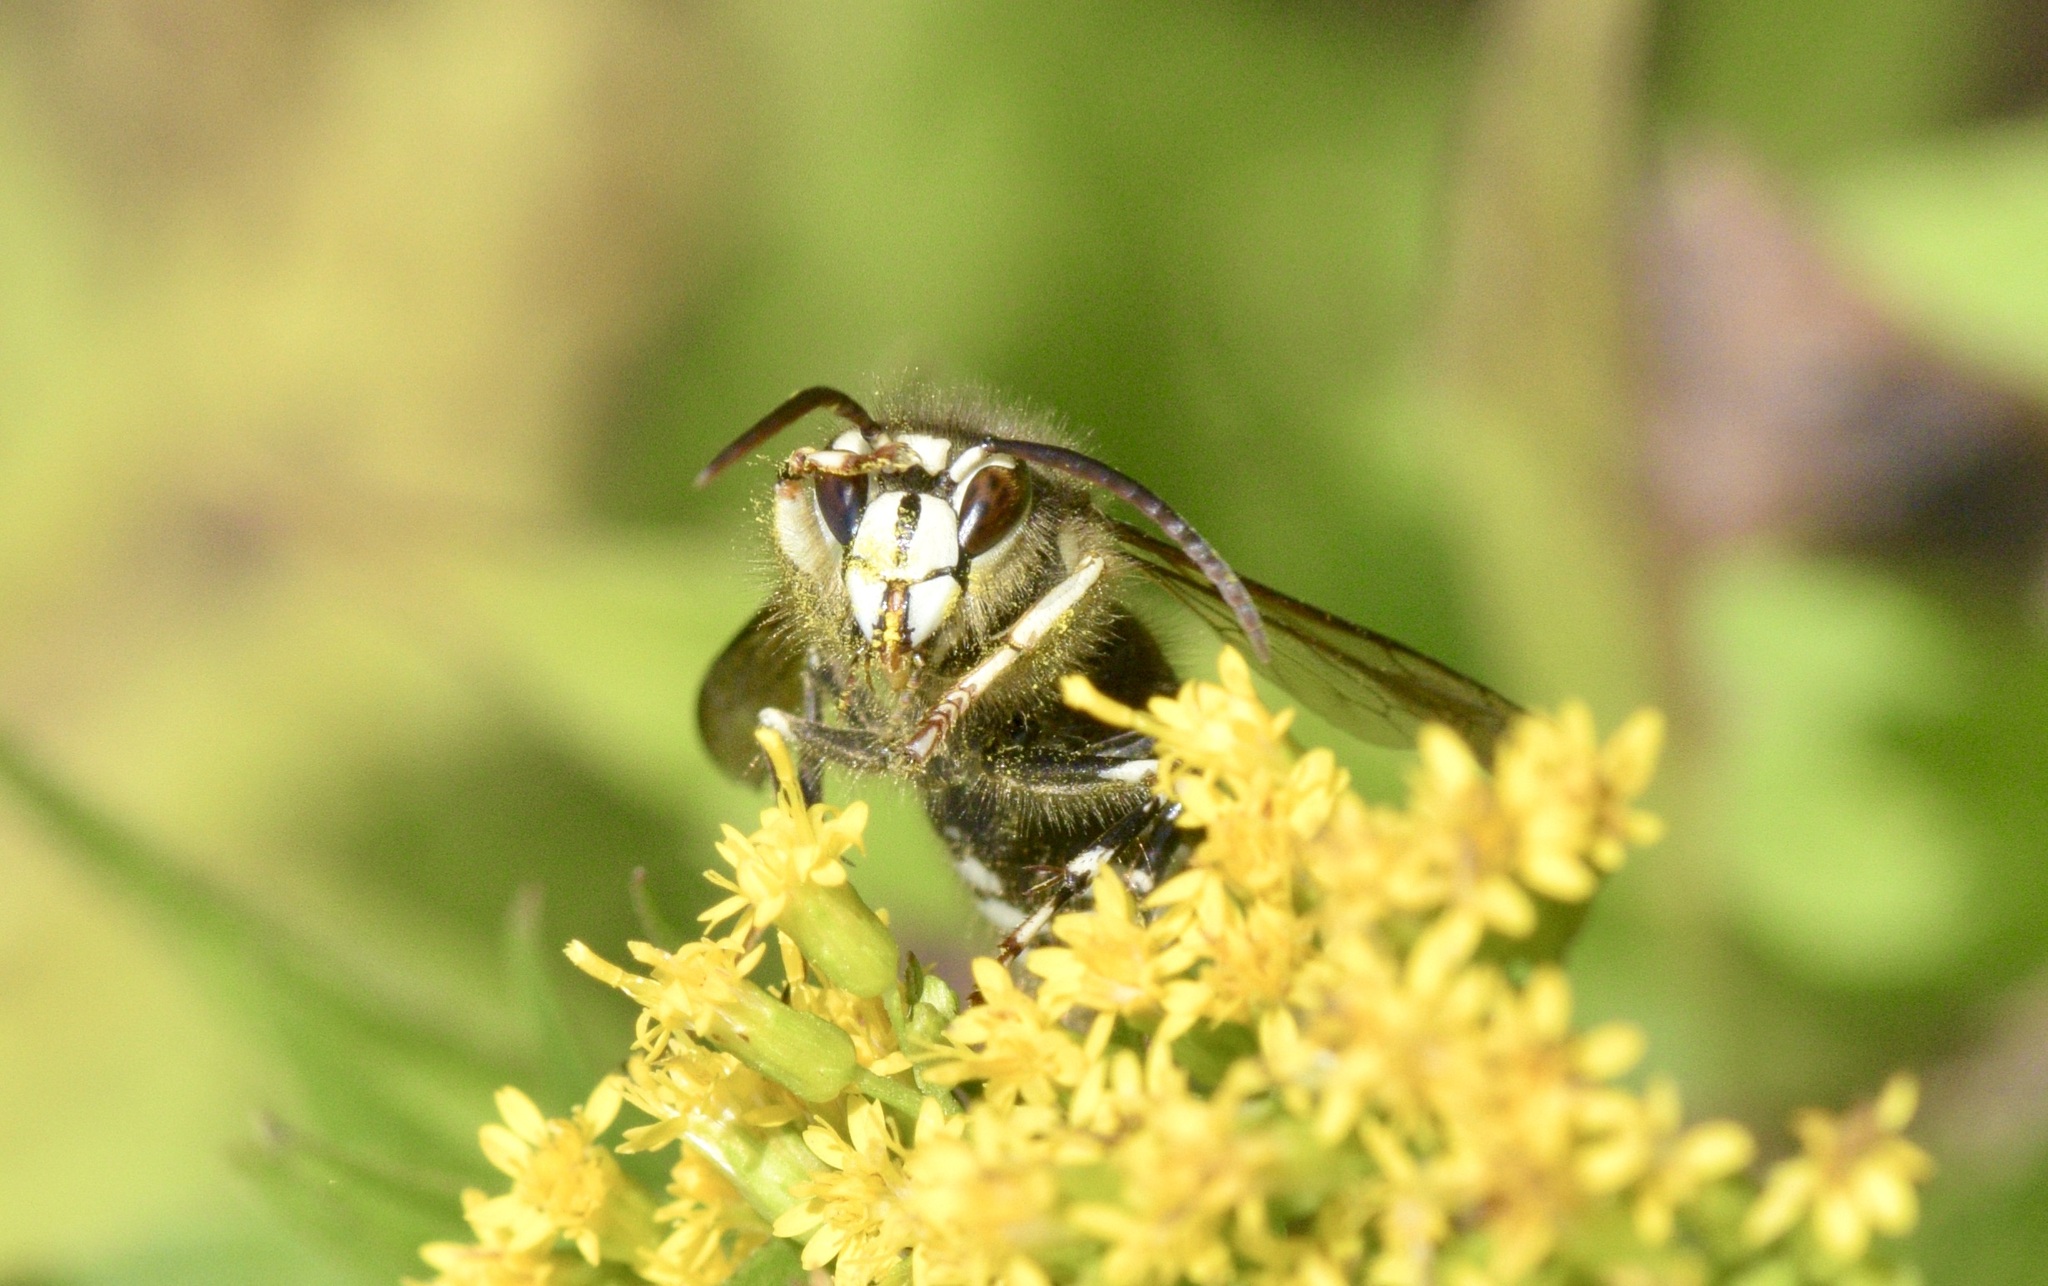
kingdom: Animalia
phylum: Arthropoda
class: Insecta
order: Hymenoptera
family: Vespidae
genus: Dolichovespula
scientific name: Dolichovespula maculata
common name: Bald-faced hornet
